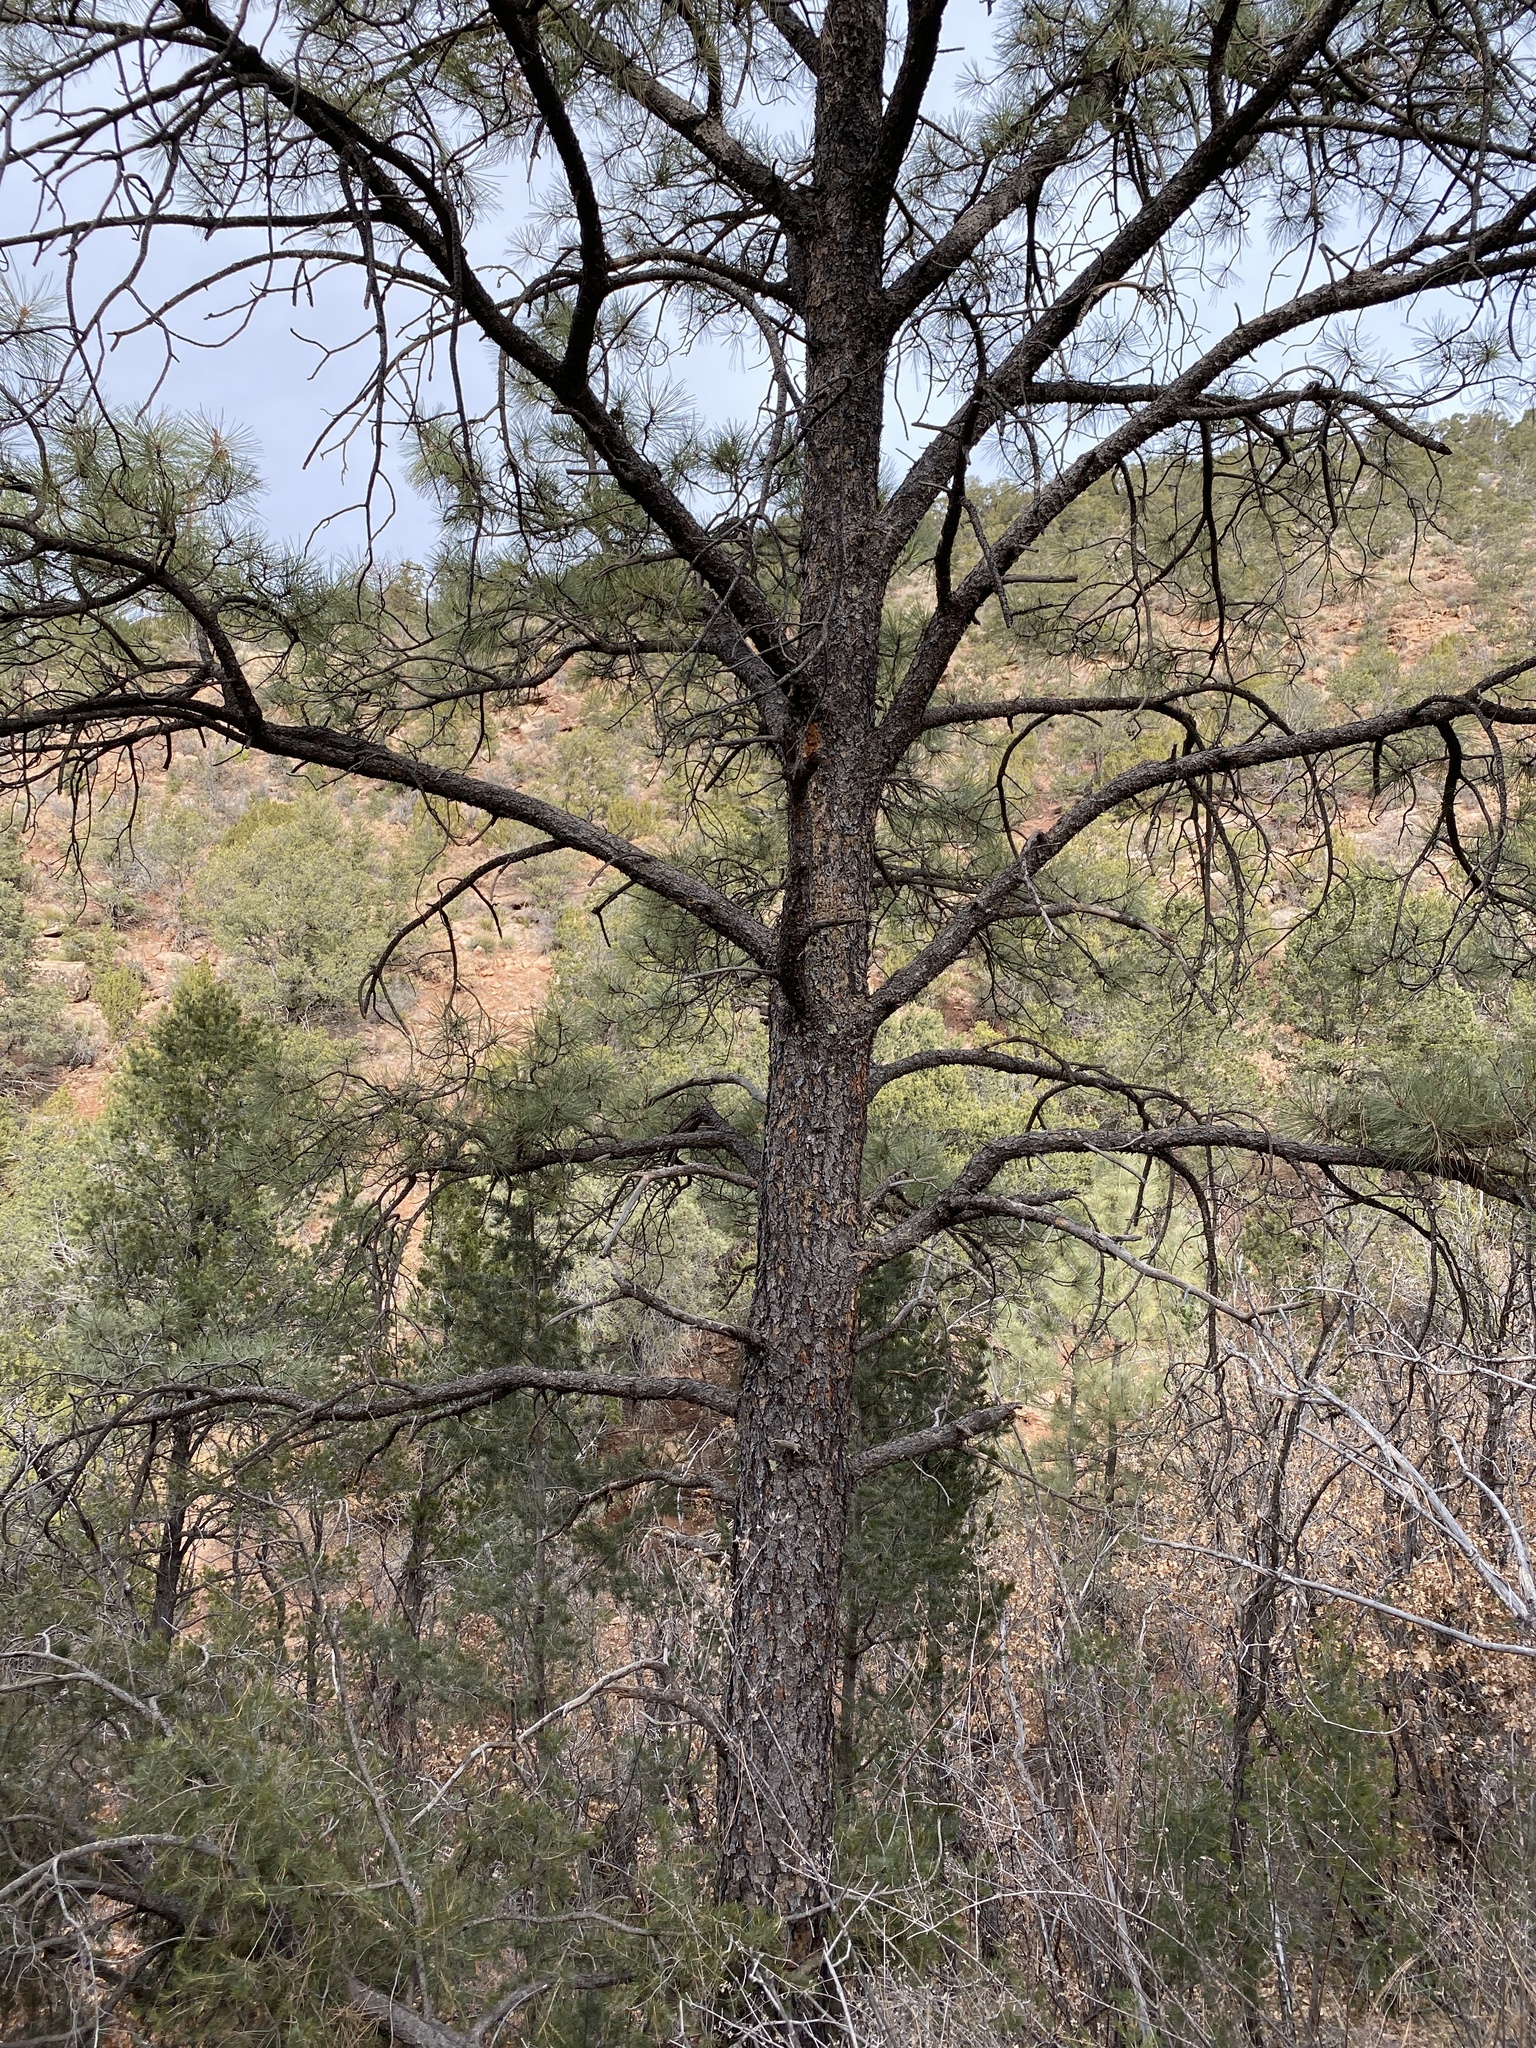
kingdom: Plantae
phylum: Tracheophyta
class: Pinopsida
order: Pinales
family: Pinaceae
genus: Pinus
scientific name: Pinus ponderosa
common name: Western yellow-pine
